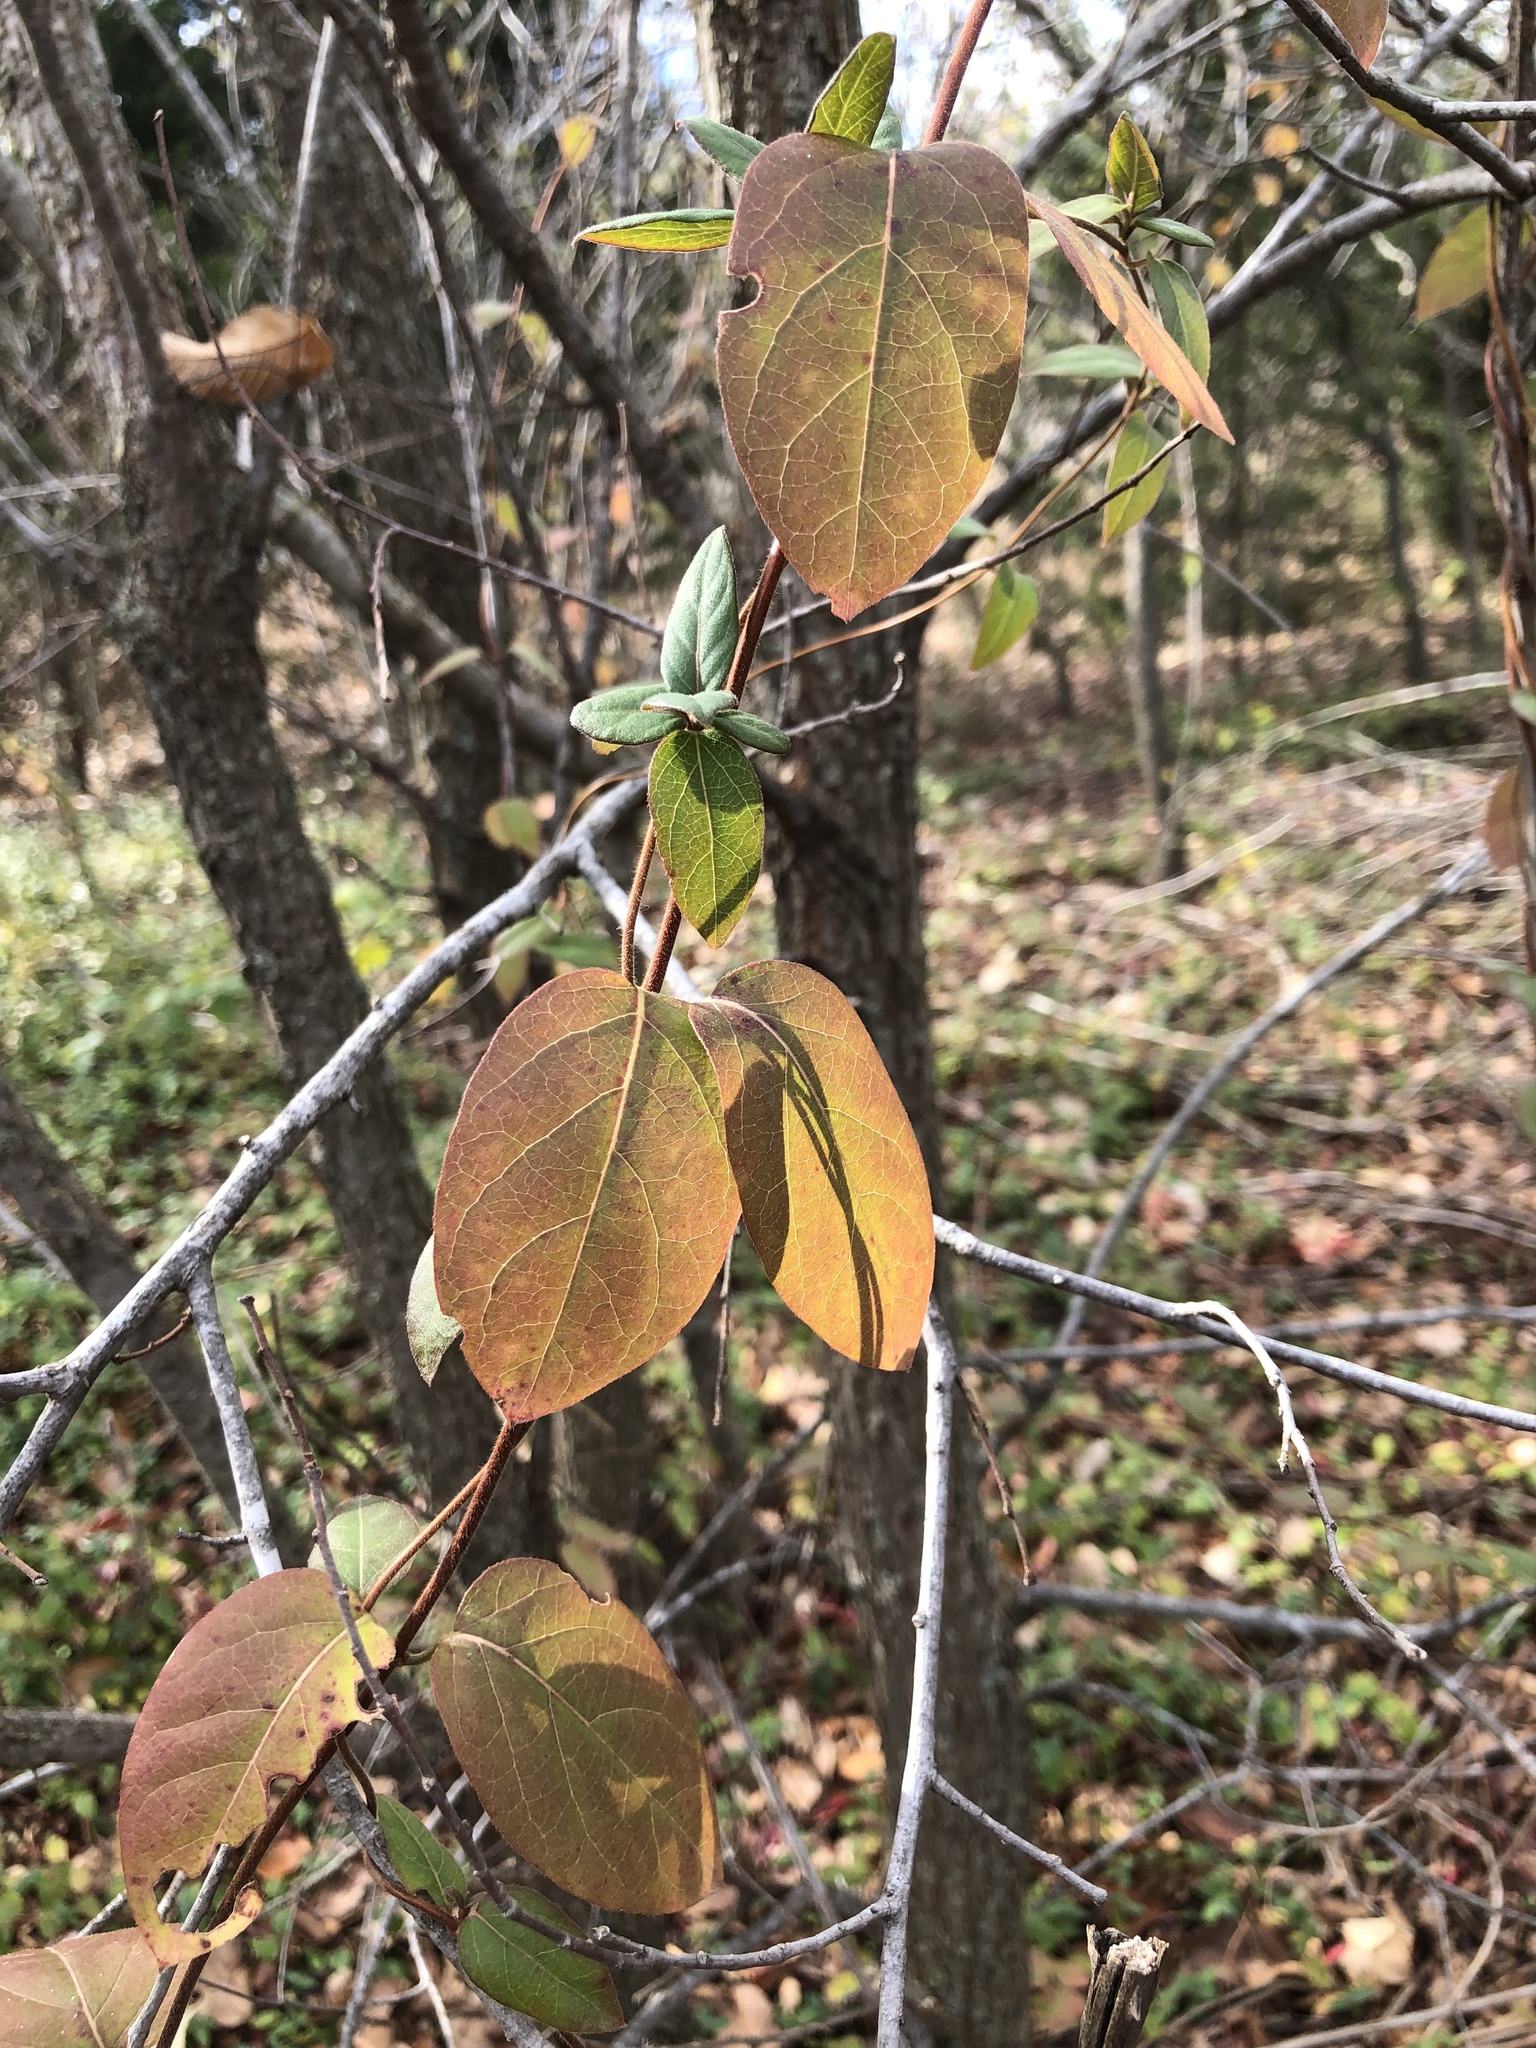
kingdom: Plantae
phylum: Tracheophyta
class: Magnoliopsida
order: Dipsacales
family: Caprifoliaceae
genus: Lonicera
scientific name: Lonicera japonica
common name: Japanese honeysuckle
